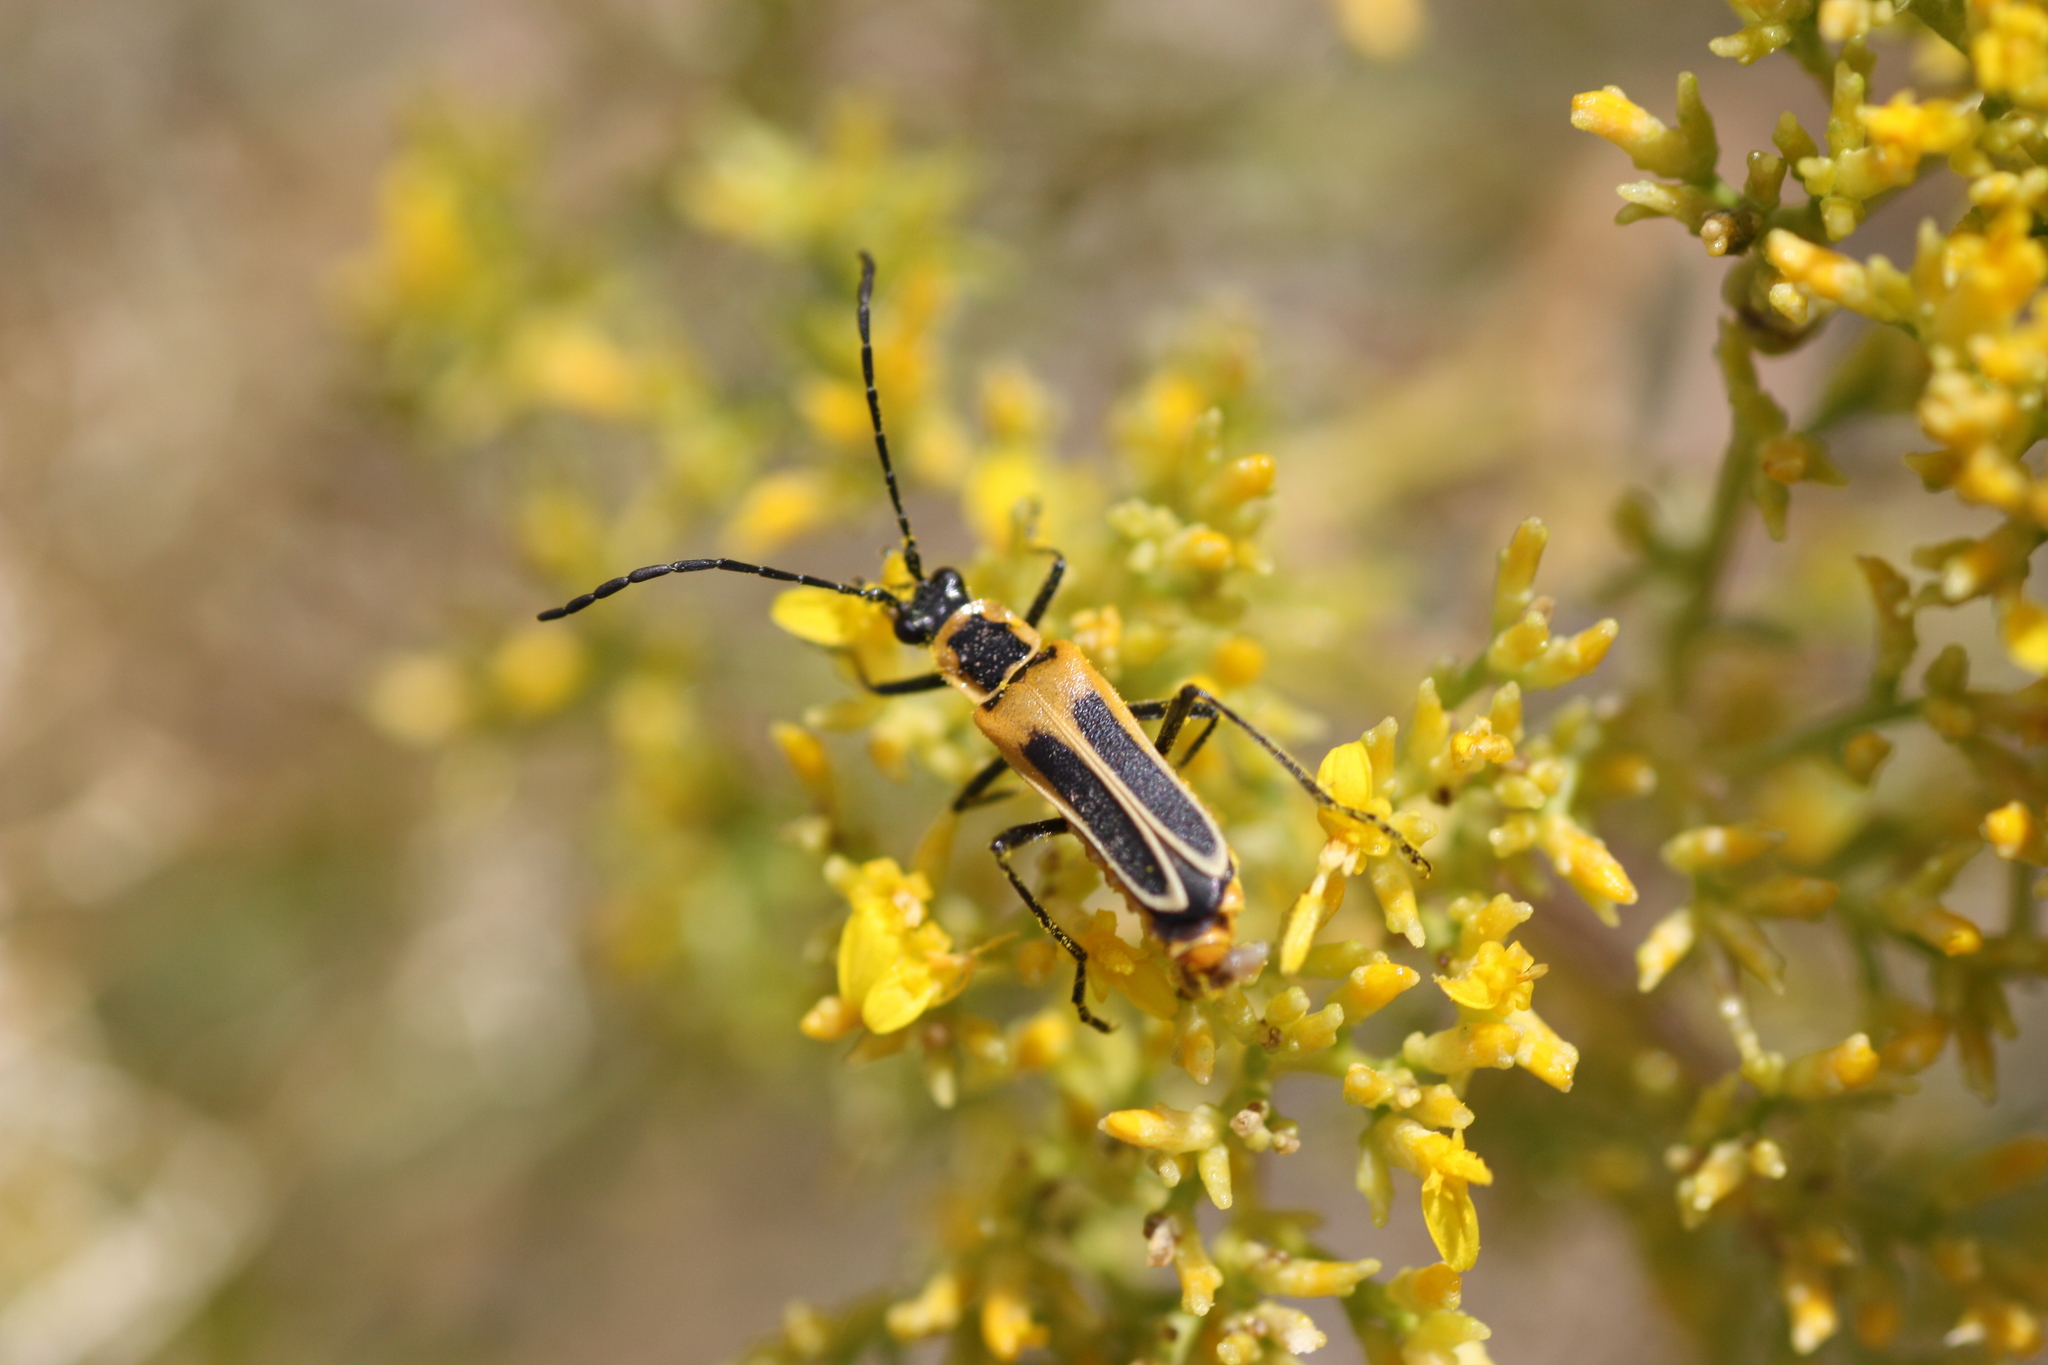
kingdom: Animalia
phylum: Arthropoda
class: Insecta
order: Coleoptera
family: Cantharidae
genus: Chauliognathus
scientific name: Chauliognathus lewisi
